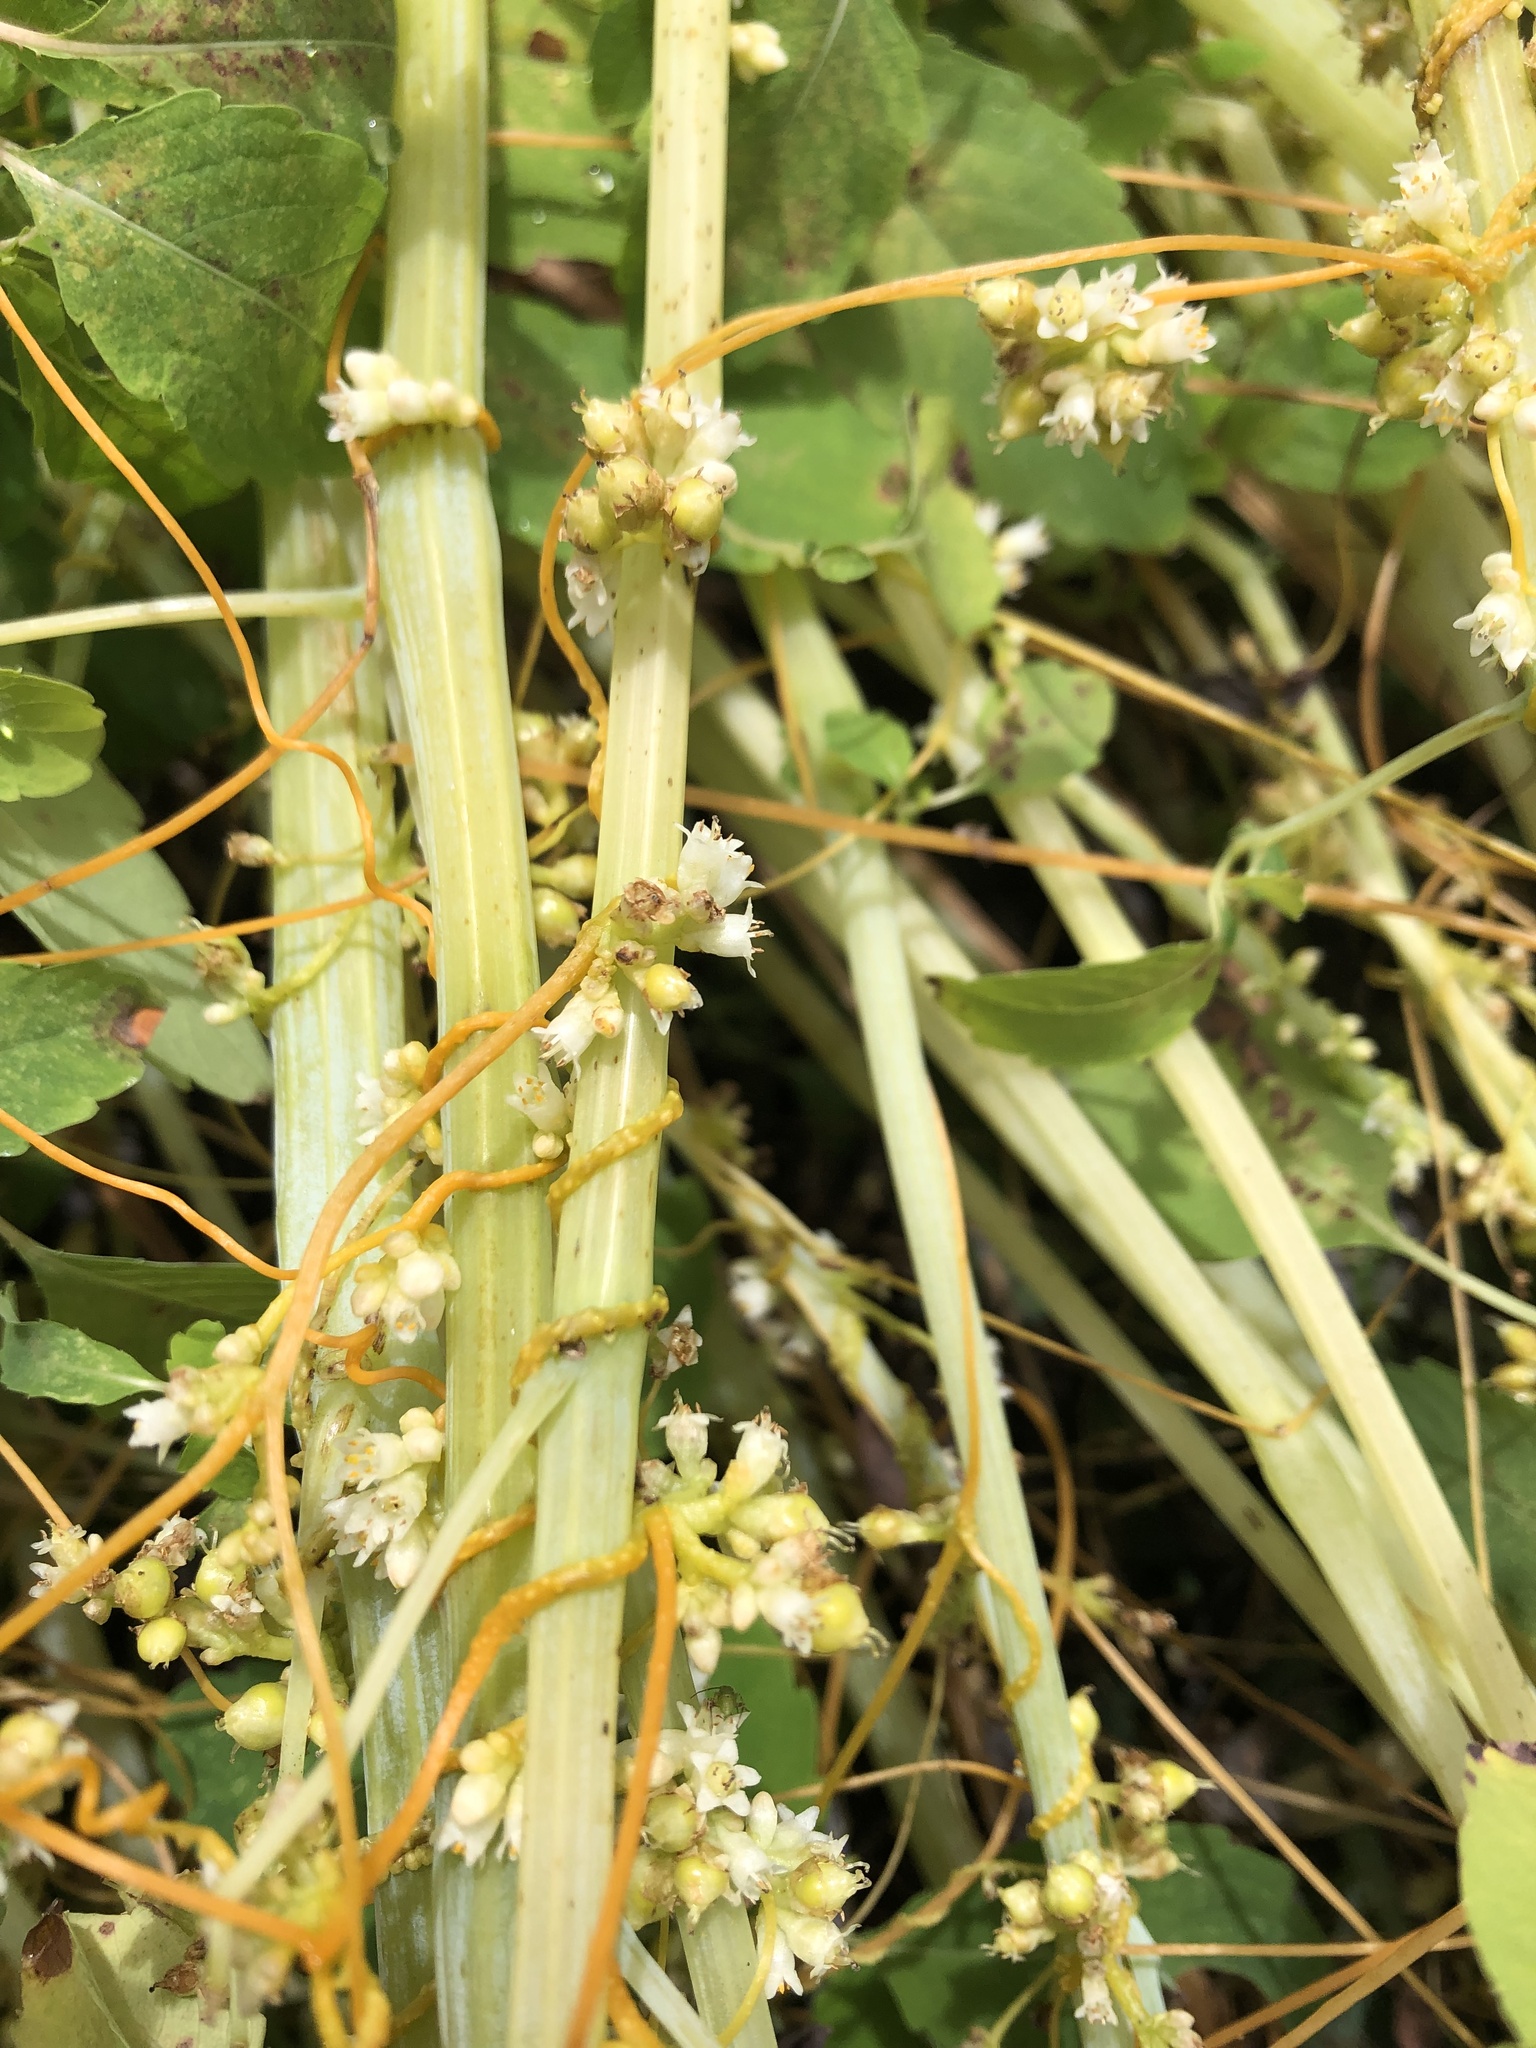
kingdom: Plantae
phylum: Tracheophyta
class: Magnoliopsida
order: Solanales
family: Convolvulaceae
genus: Cuscuta
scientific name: Cuscuta gronovii
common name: Common dodder
